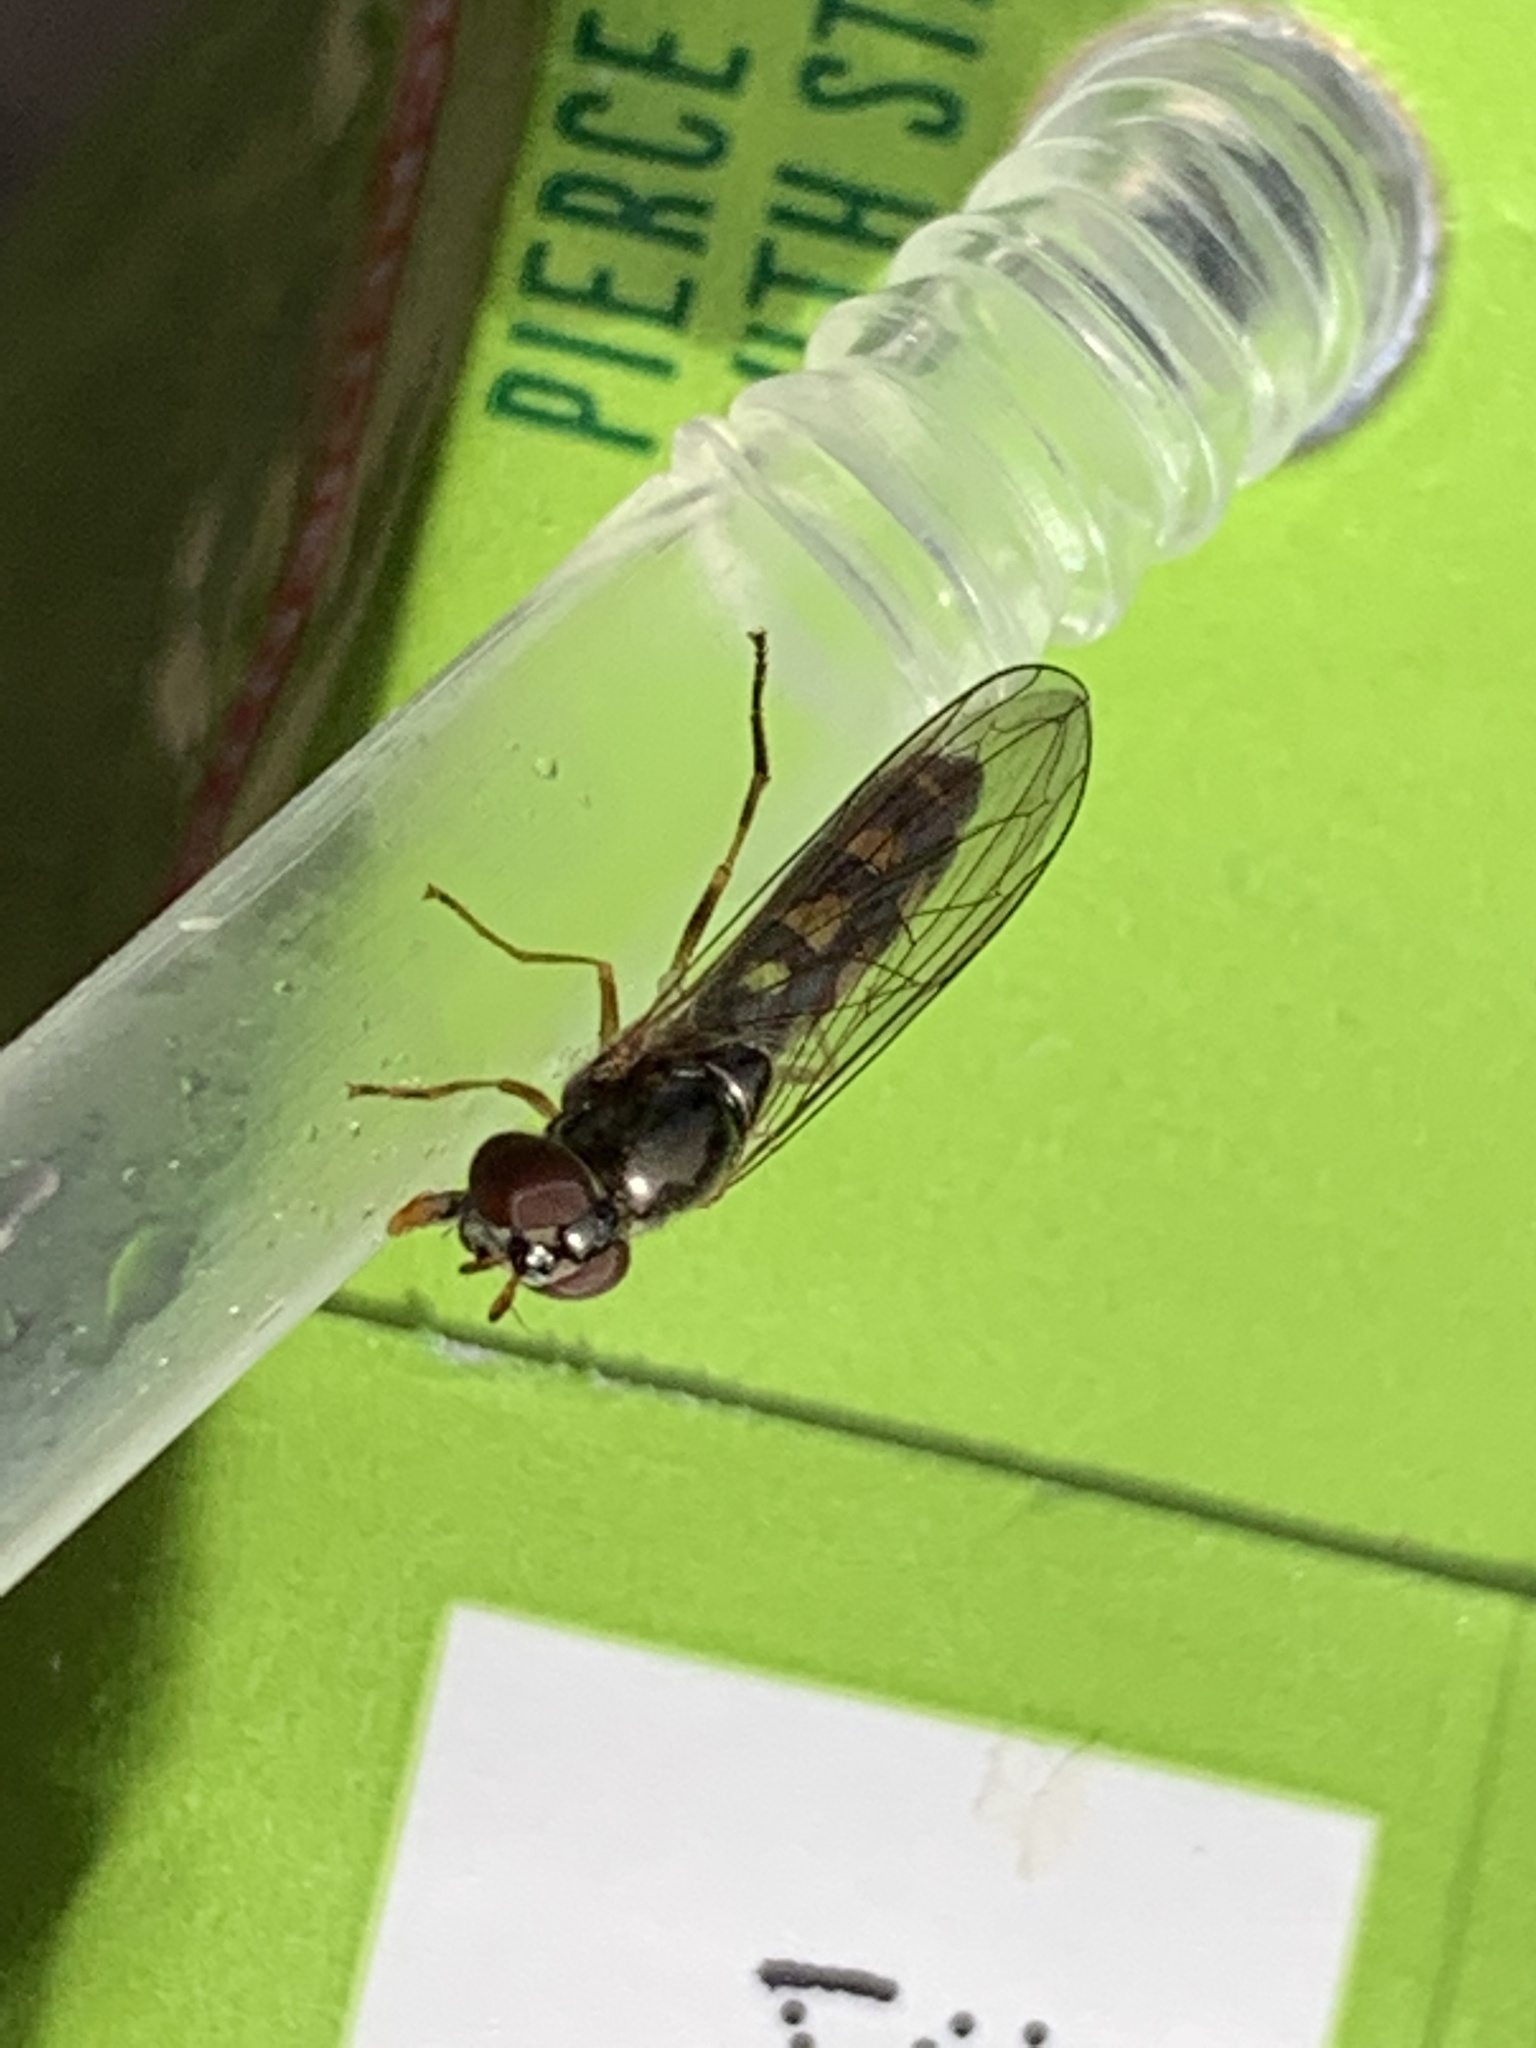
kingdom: Animalia
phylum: Arthropoda
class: Insecta
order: Diptera
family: Syrphidae
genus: Melanostoma
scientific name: Melanostoma scalare
